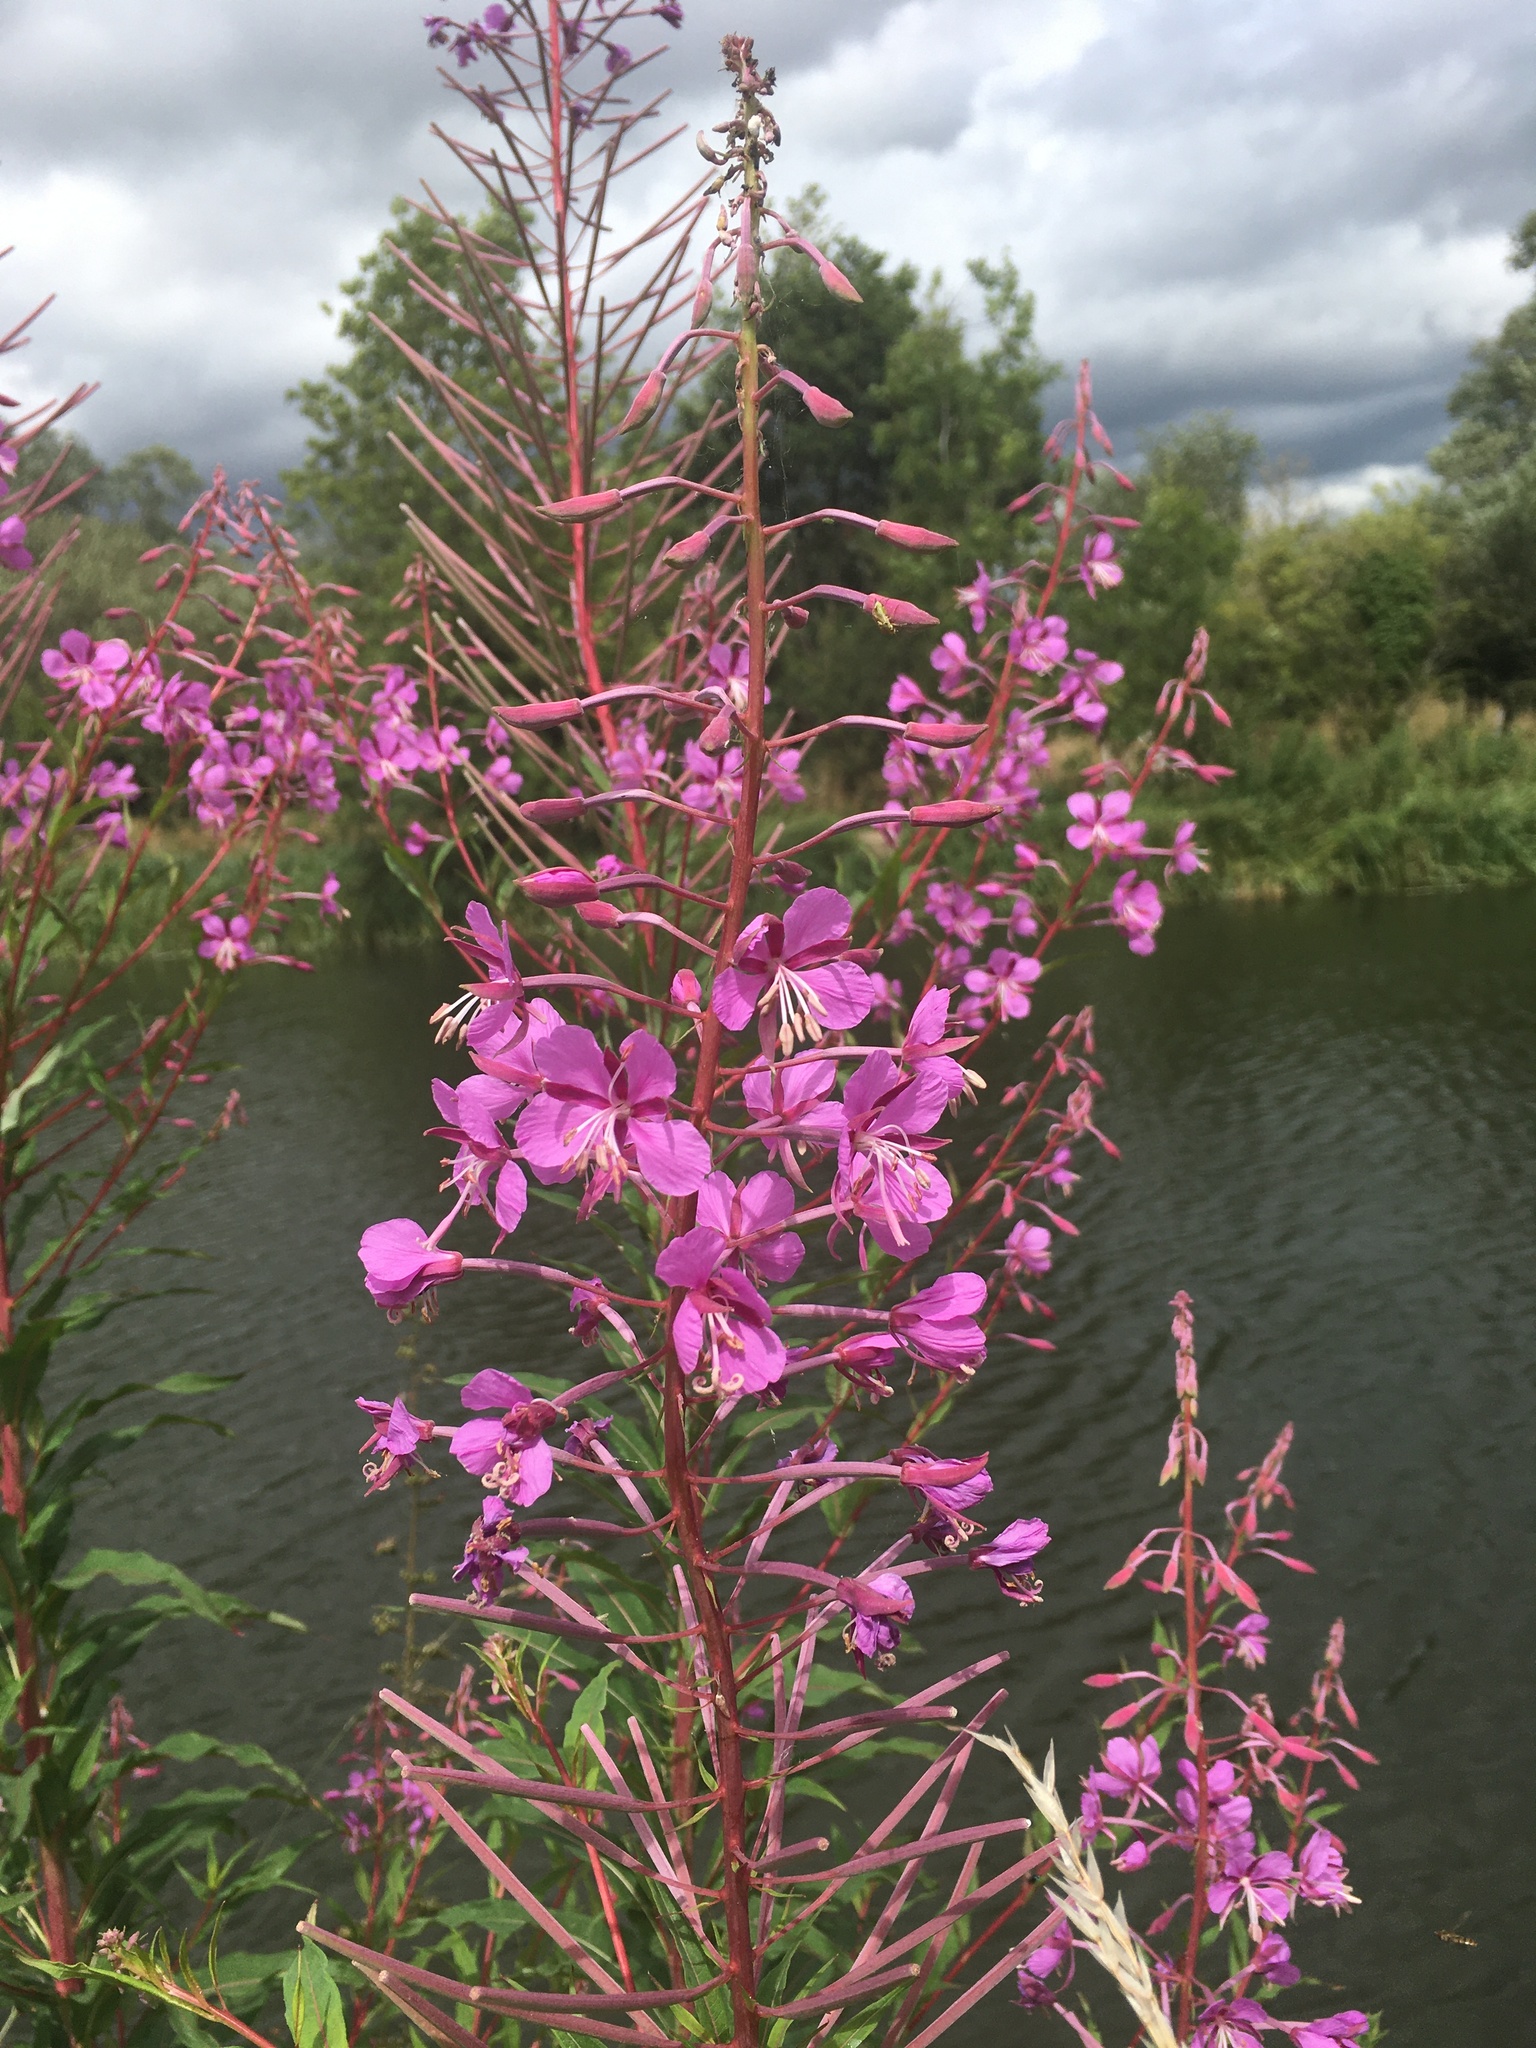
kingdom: Plantae
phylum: Tracheophyta
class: Magnoliopsida
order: Myrtales
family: Onagraceae
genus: Chamaenerion
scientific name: Chamaenerion angustifolium
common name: Fireweed
